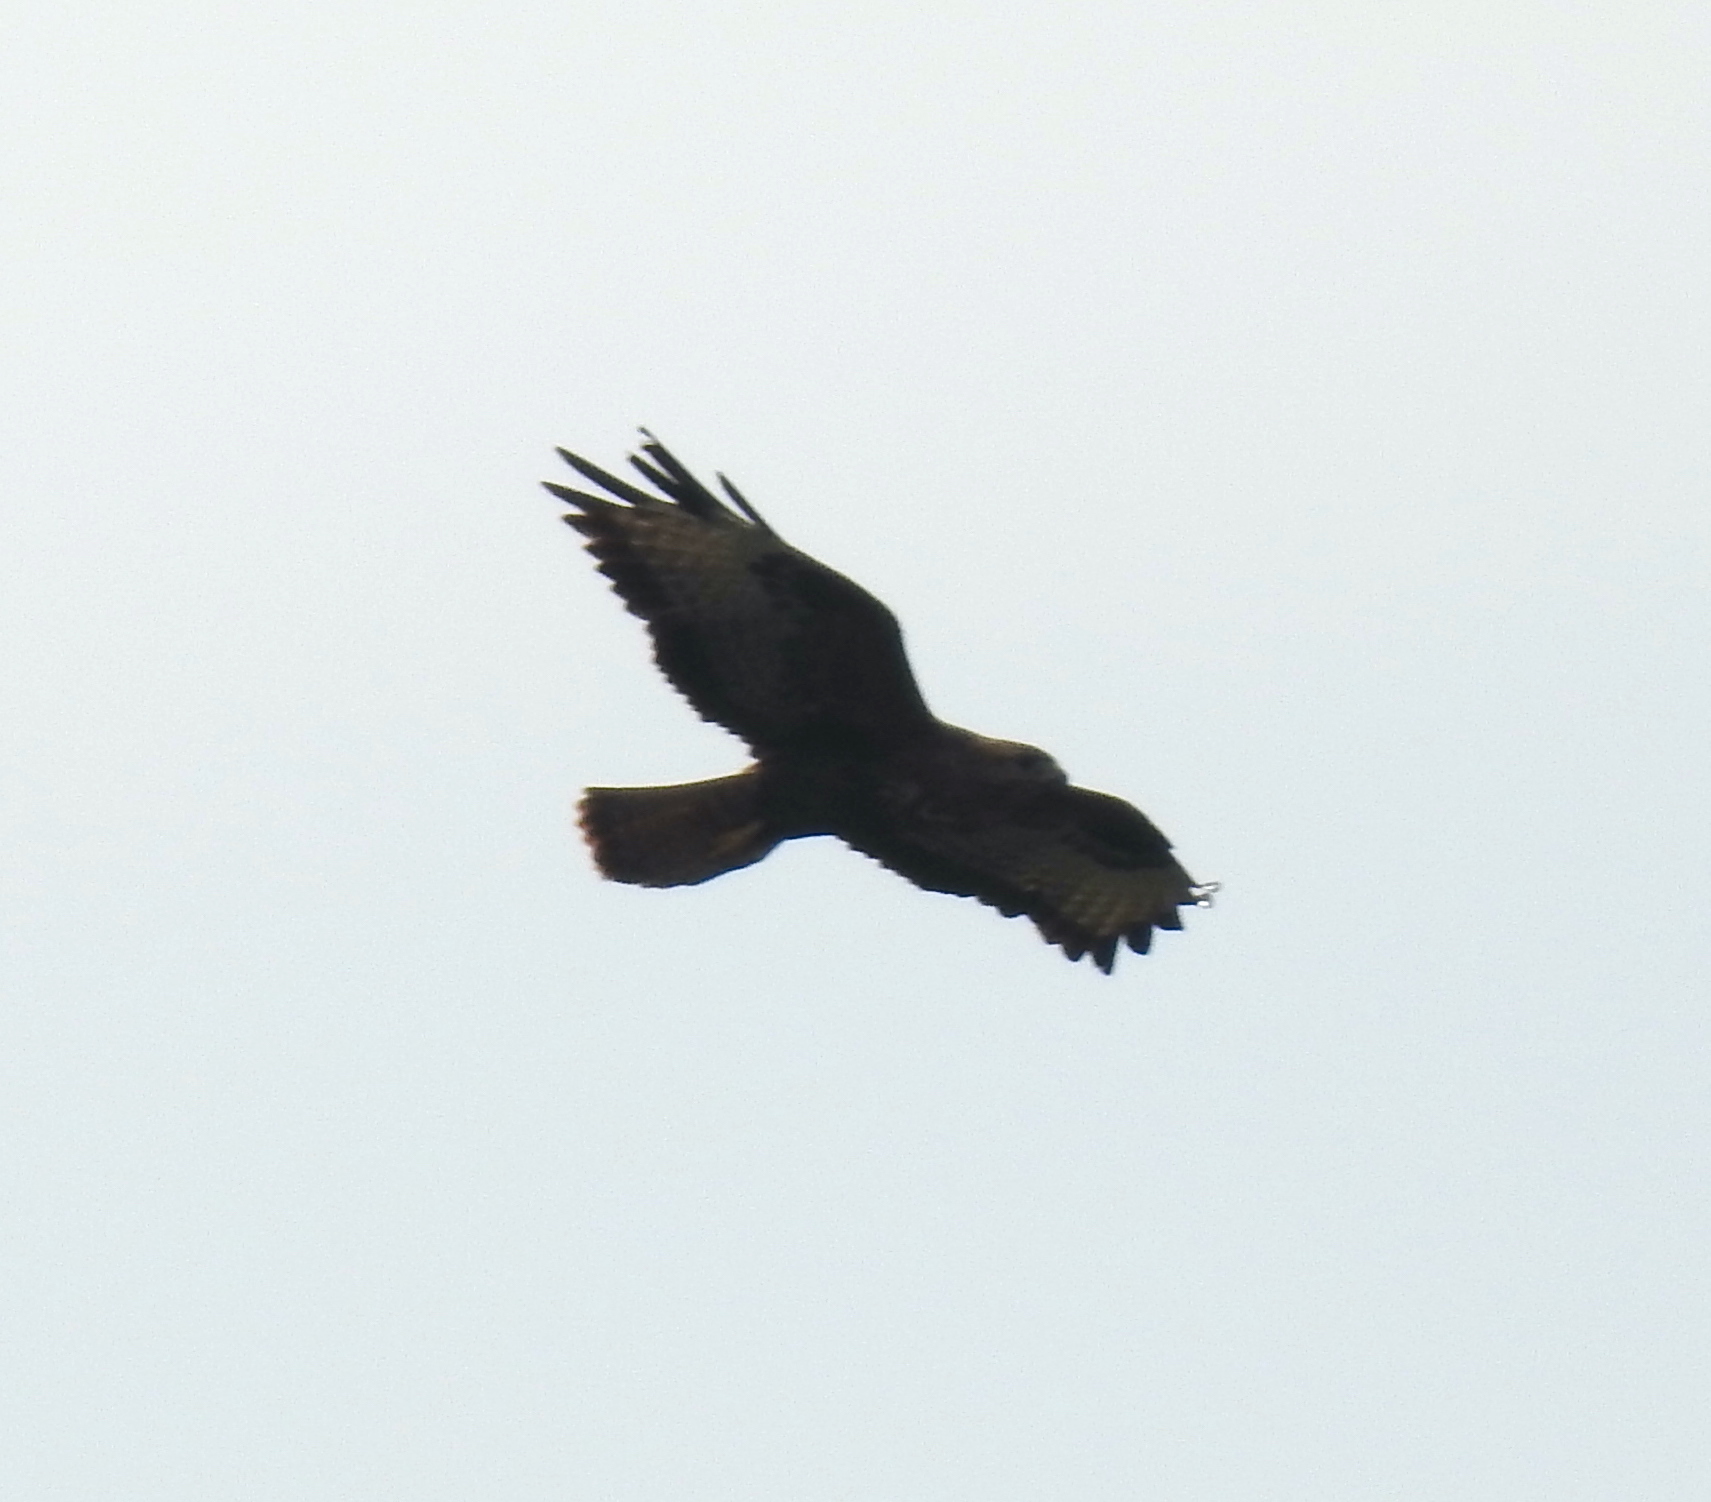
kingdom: Animalia
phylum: Chordata
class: Aves
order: Accipitriformes
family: Accipitridae
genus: Buteo
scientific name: Buteo buteo
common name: Common buzzard
